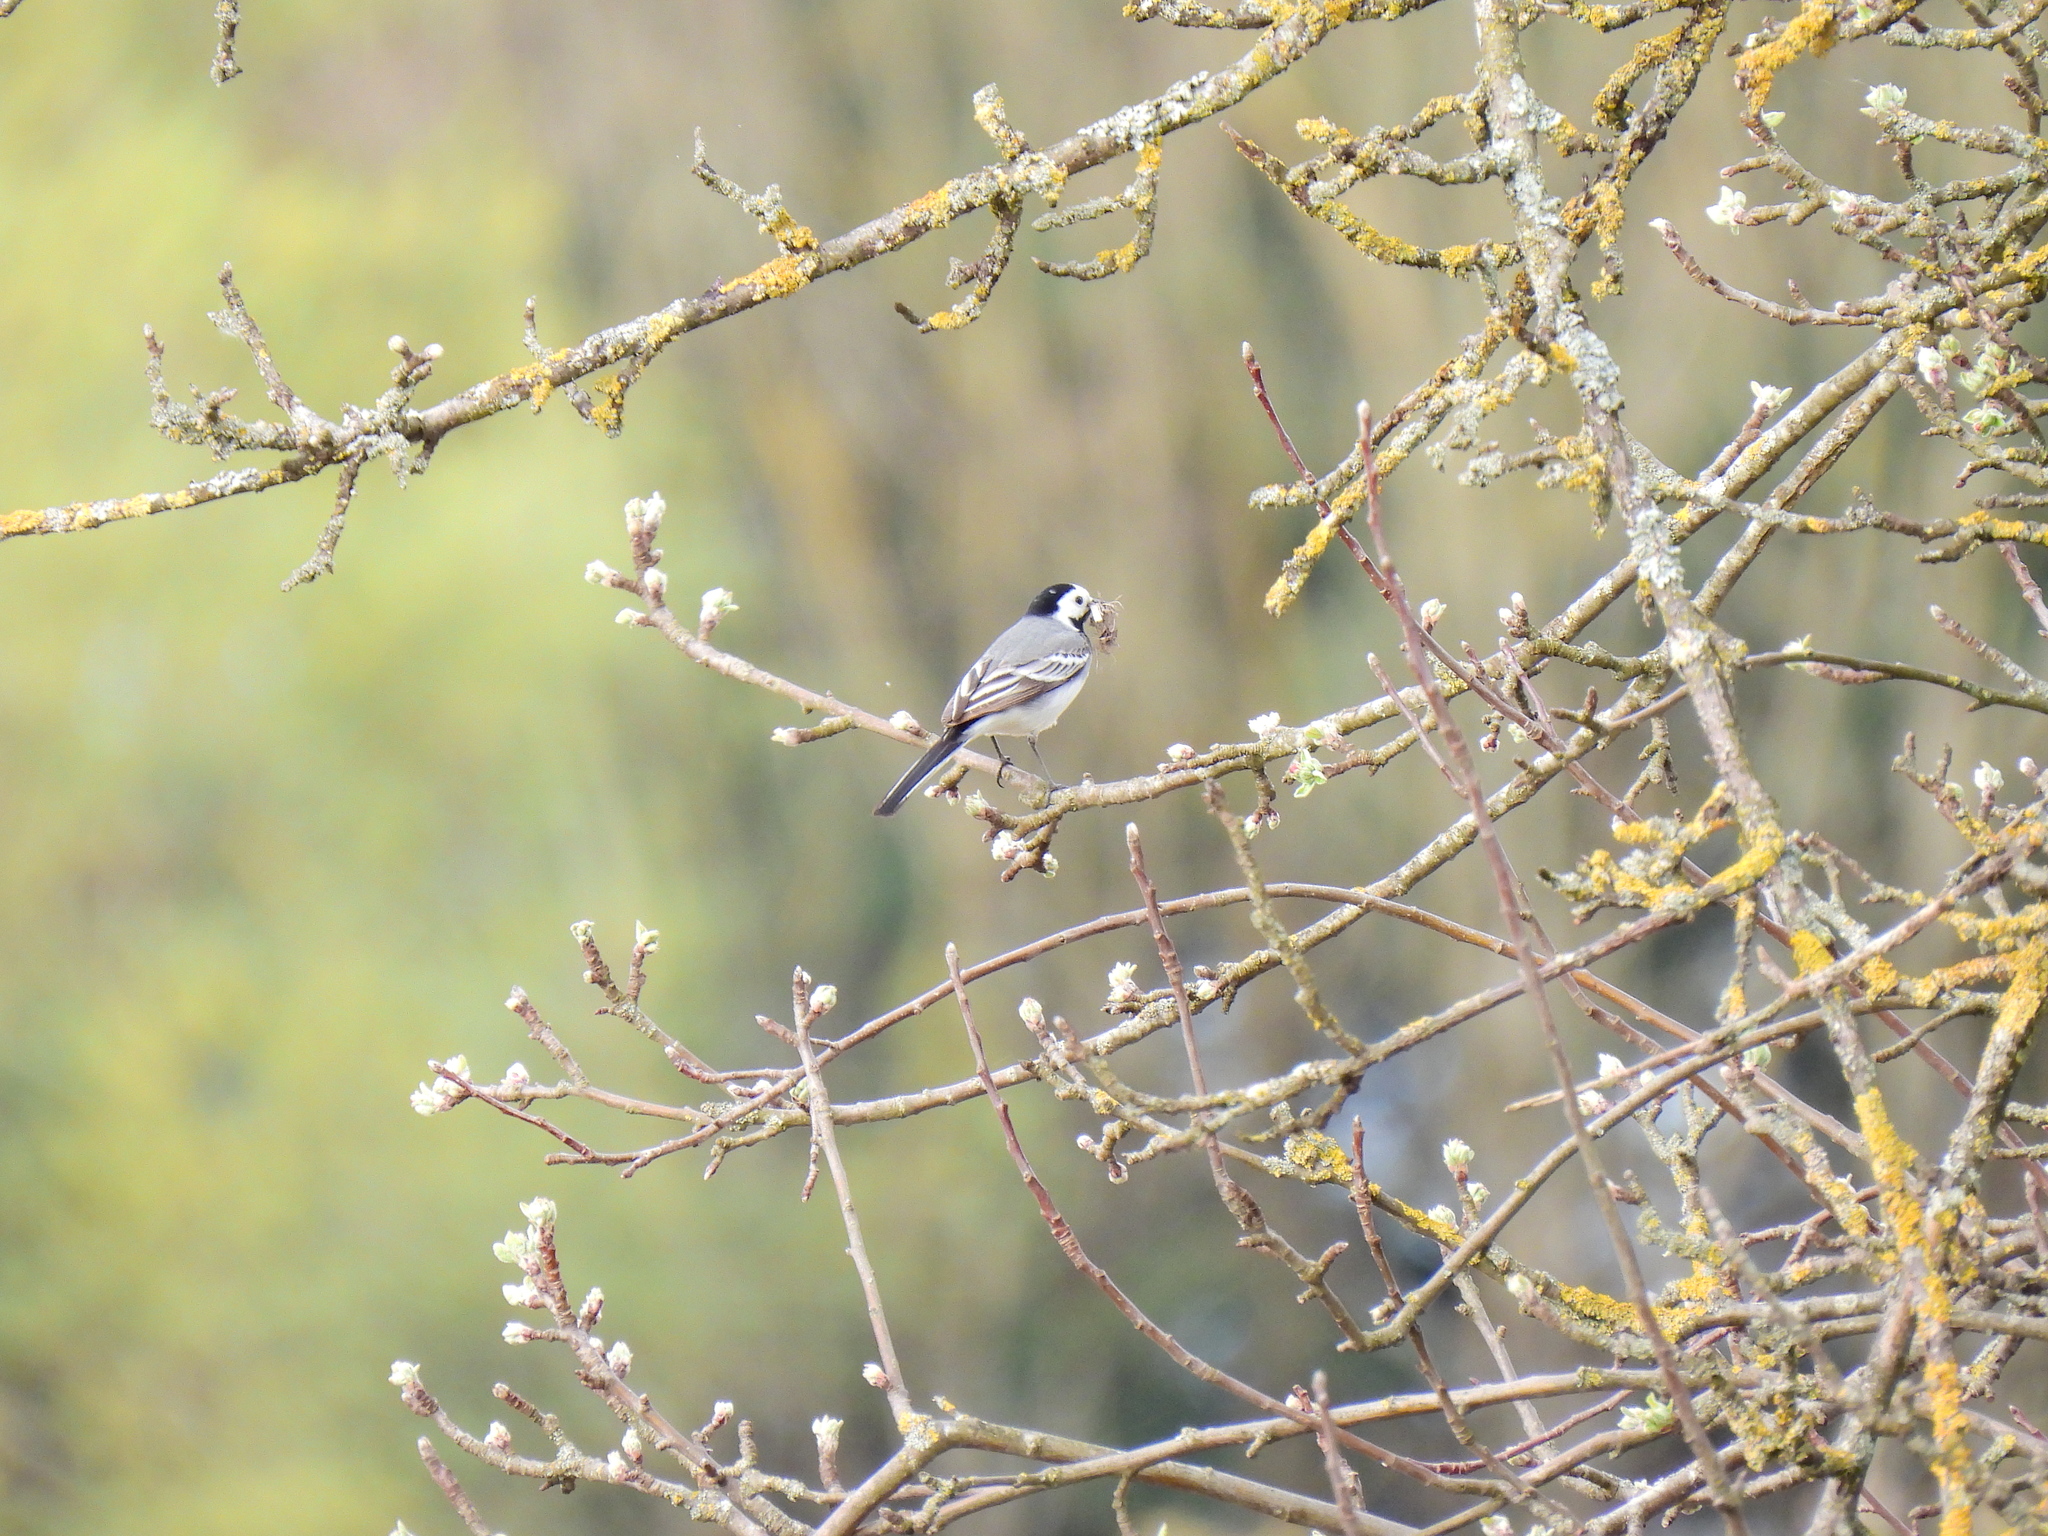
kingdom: Animalia
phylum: Chordata
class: Aves
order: Passeriformes
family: Motacillidae
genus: Motacilla
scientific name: Motacilla alba
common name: White wagtail
